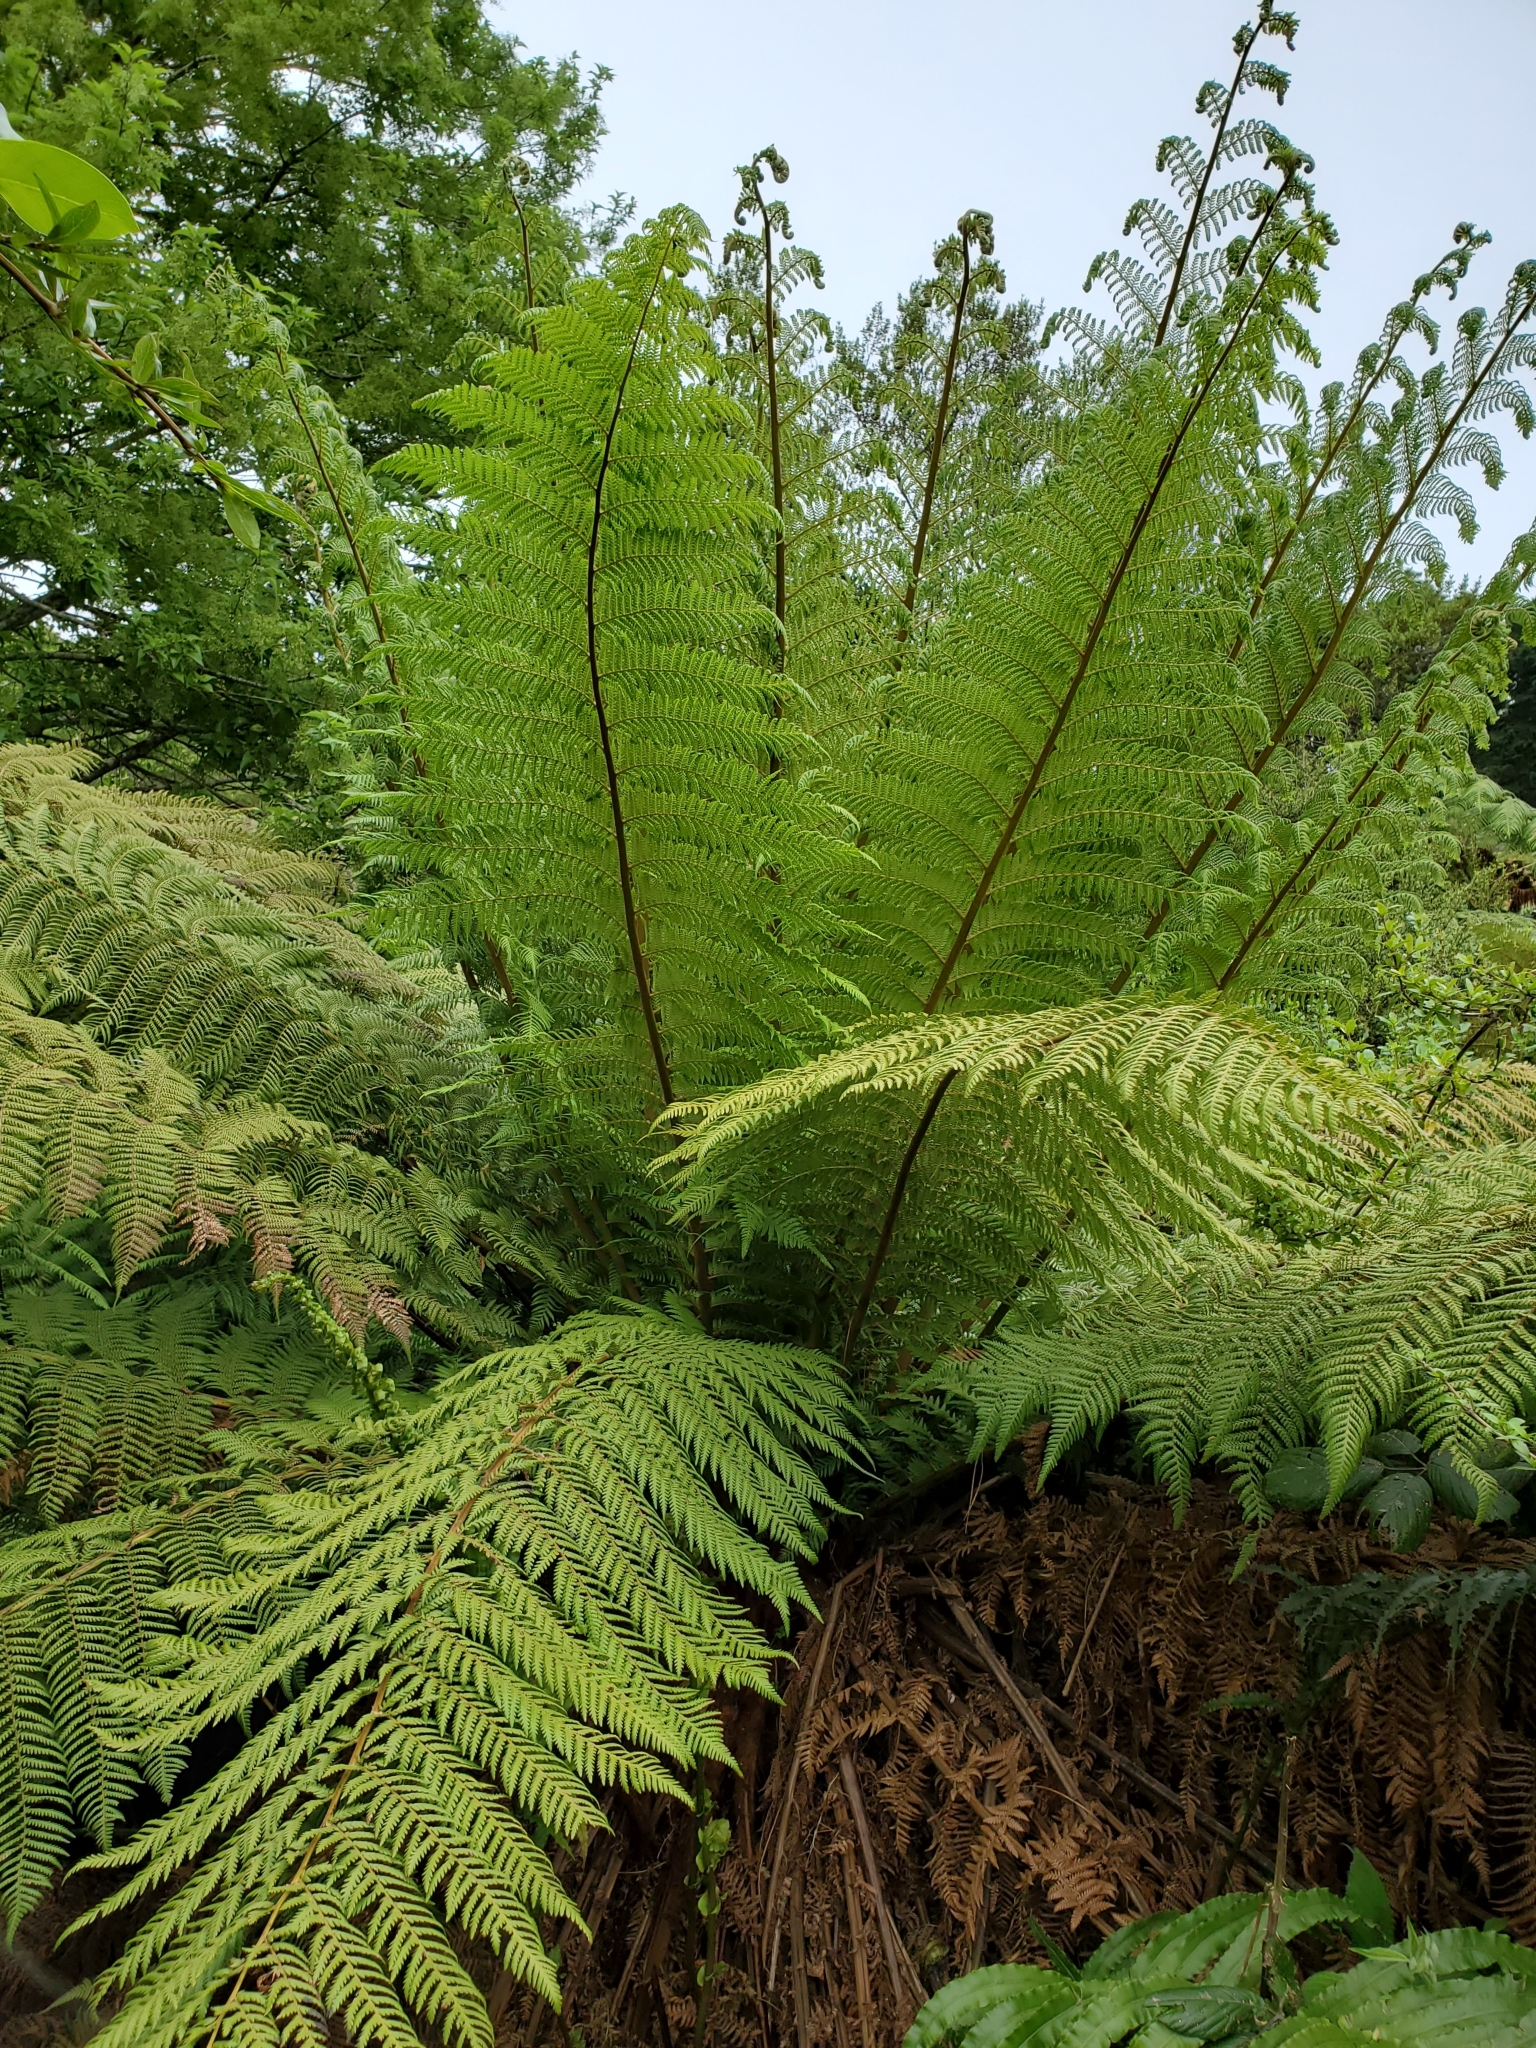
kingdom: Plantae
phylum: Tracheophyta
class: Polypodiopsida
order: Cyatheales
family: Dicksoniaceae
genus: Dicksonia
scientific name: Dicksonia fibrosa
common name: Golden tree fern
